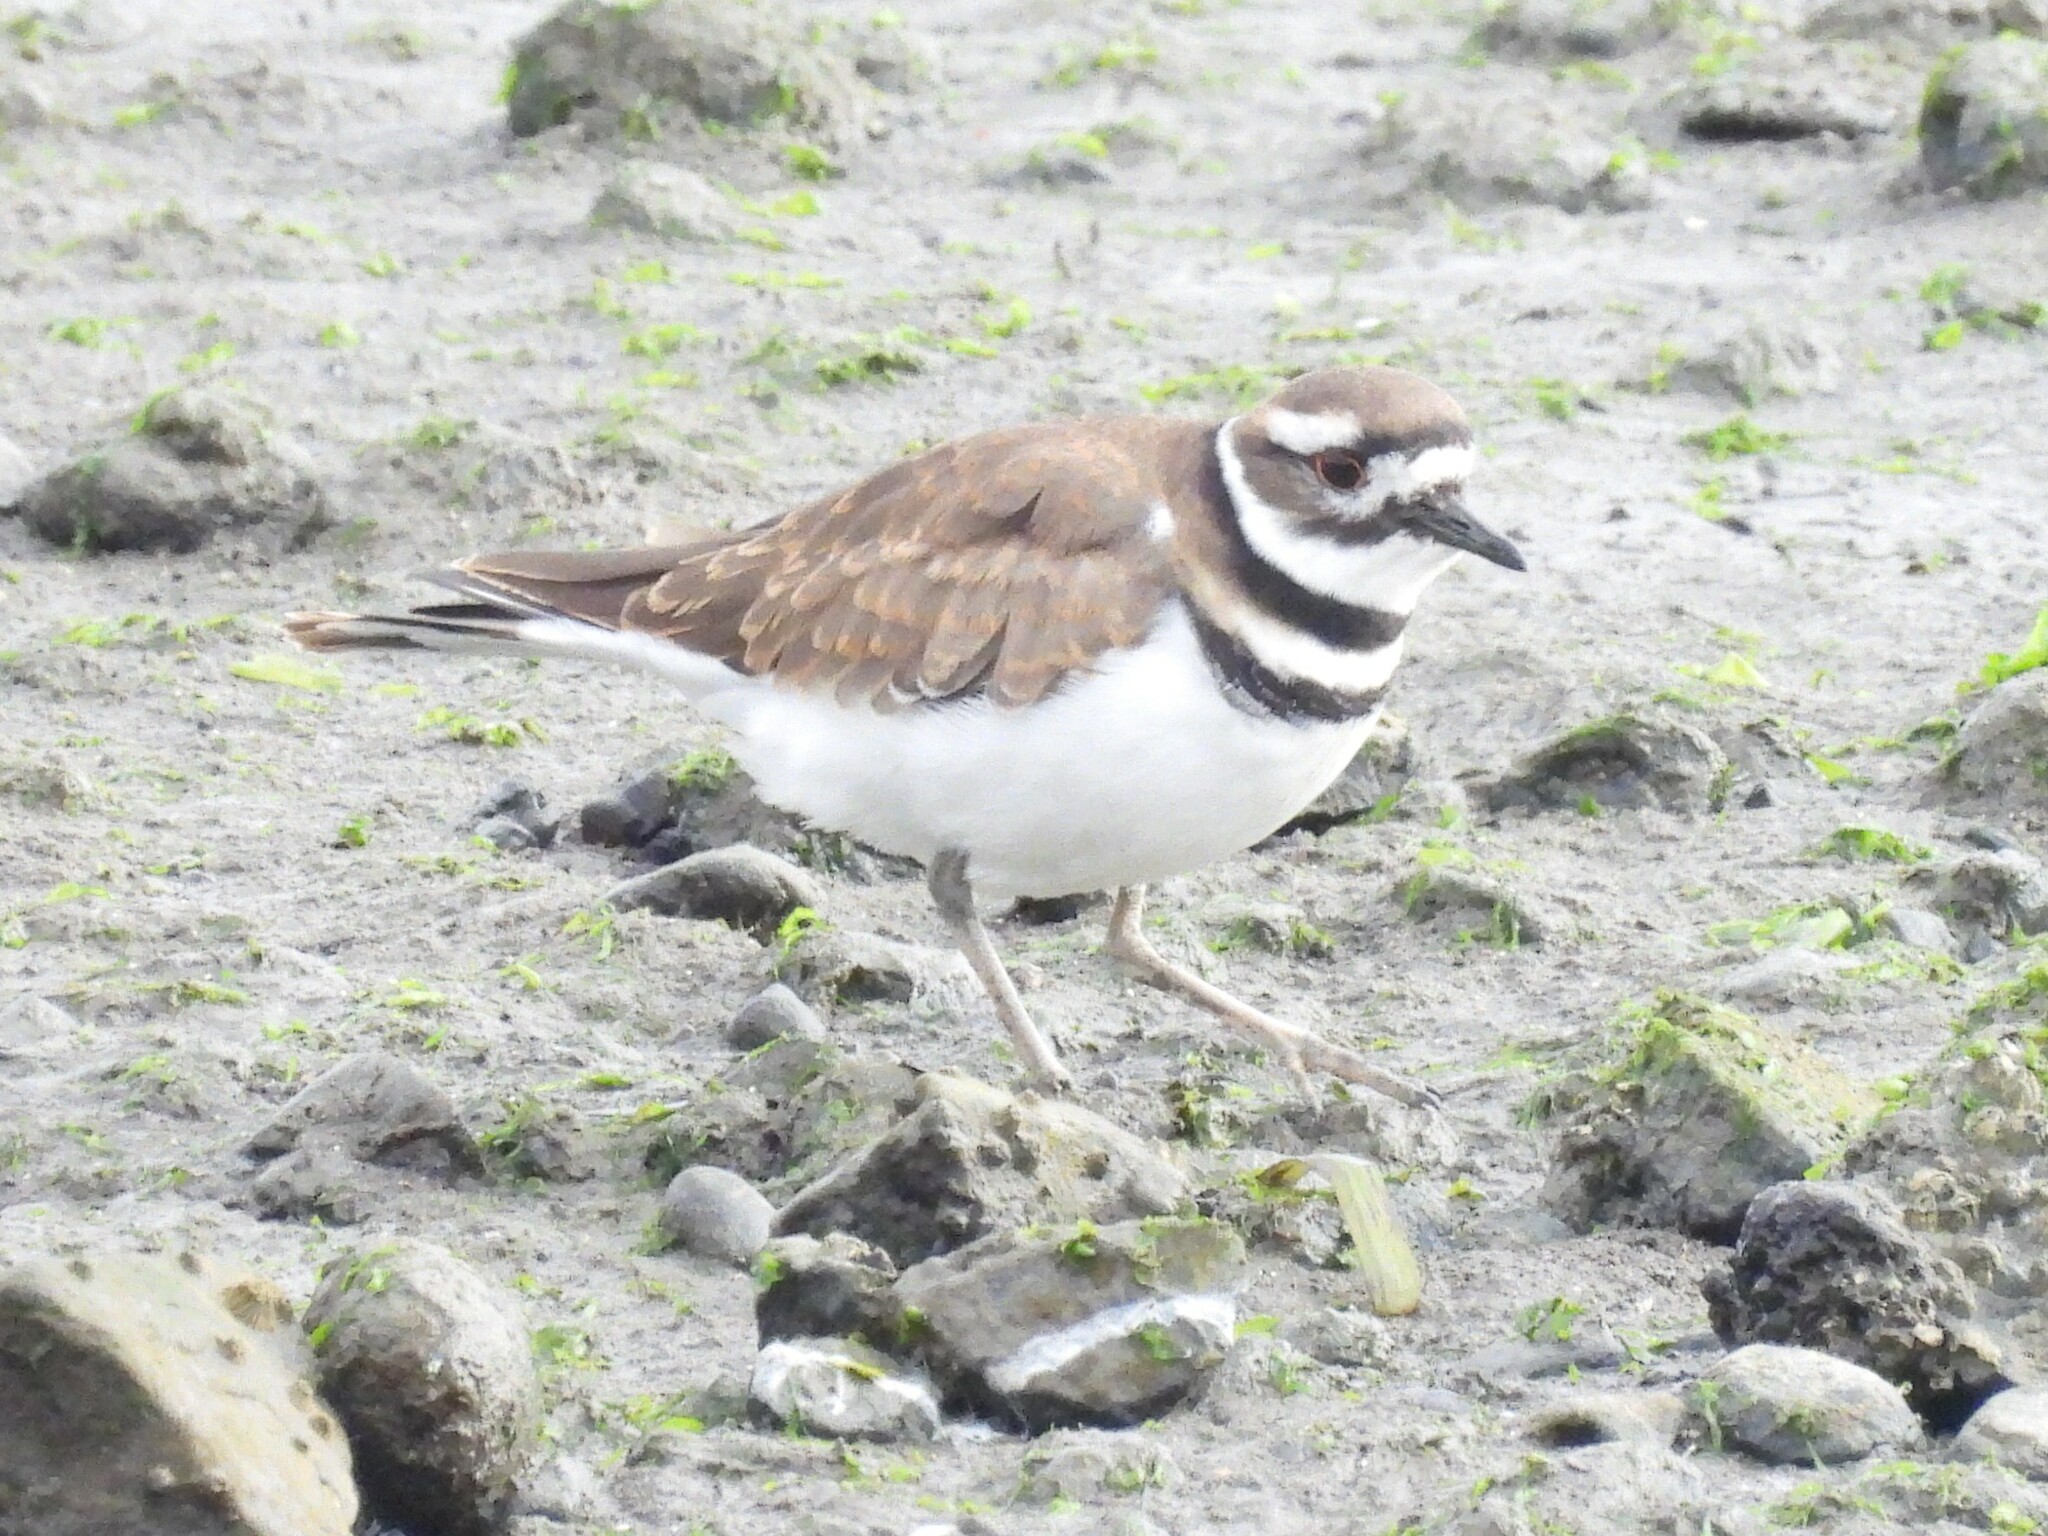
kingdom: Animalia
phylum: Chordata
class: Aves
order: Charadriiformes
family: Charadriidae
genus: Charadrius
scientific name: Charadrius vociferus
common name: Killdeer
